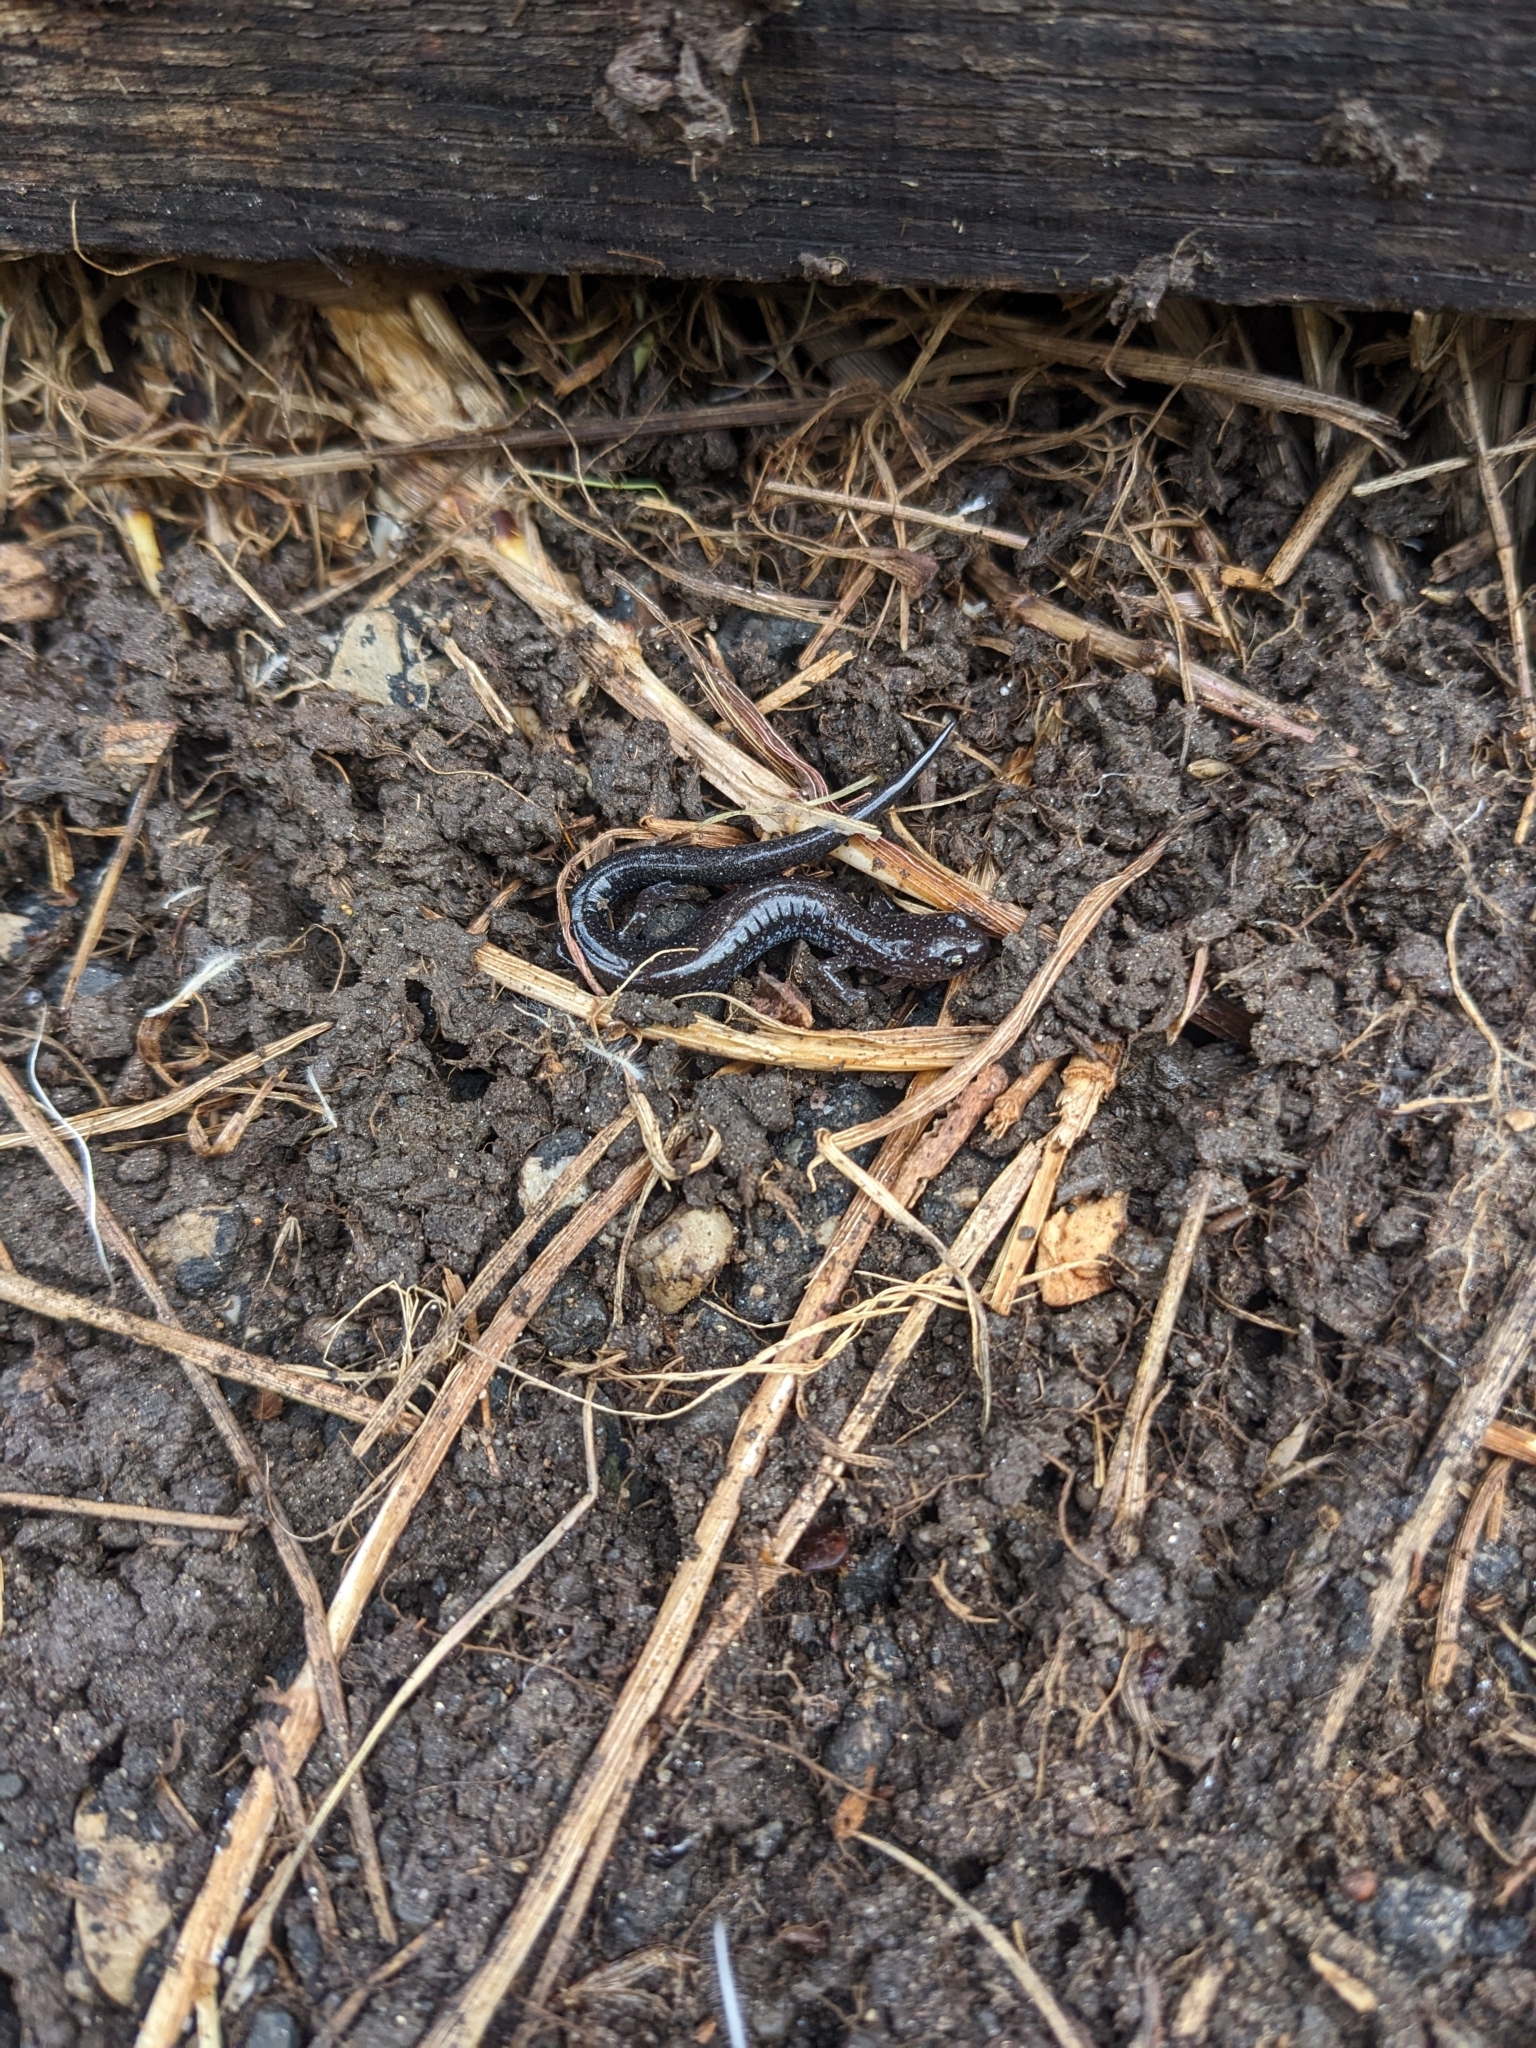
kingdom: Animalia
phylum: Chordata
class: Amphibia
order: Caudata
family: Plethodontidae
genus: Plethodon
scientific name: Plethodon cinereus
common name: Redback salamander
